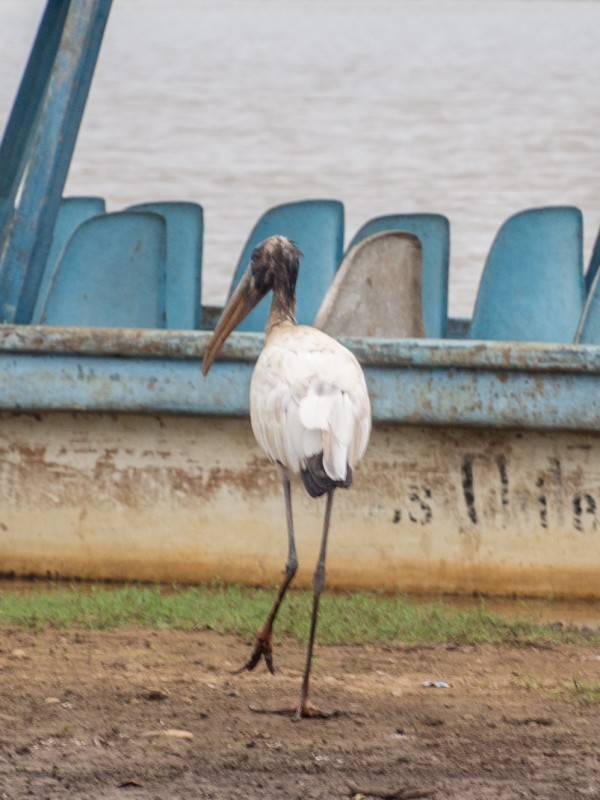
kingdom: Animalia
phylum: Chordata
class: Aves
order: Ciconiiformes
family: Ciconiidae
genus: Mycteria
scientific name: Mycteria americana
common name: Wood stork
